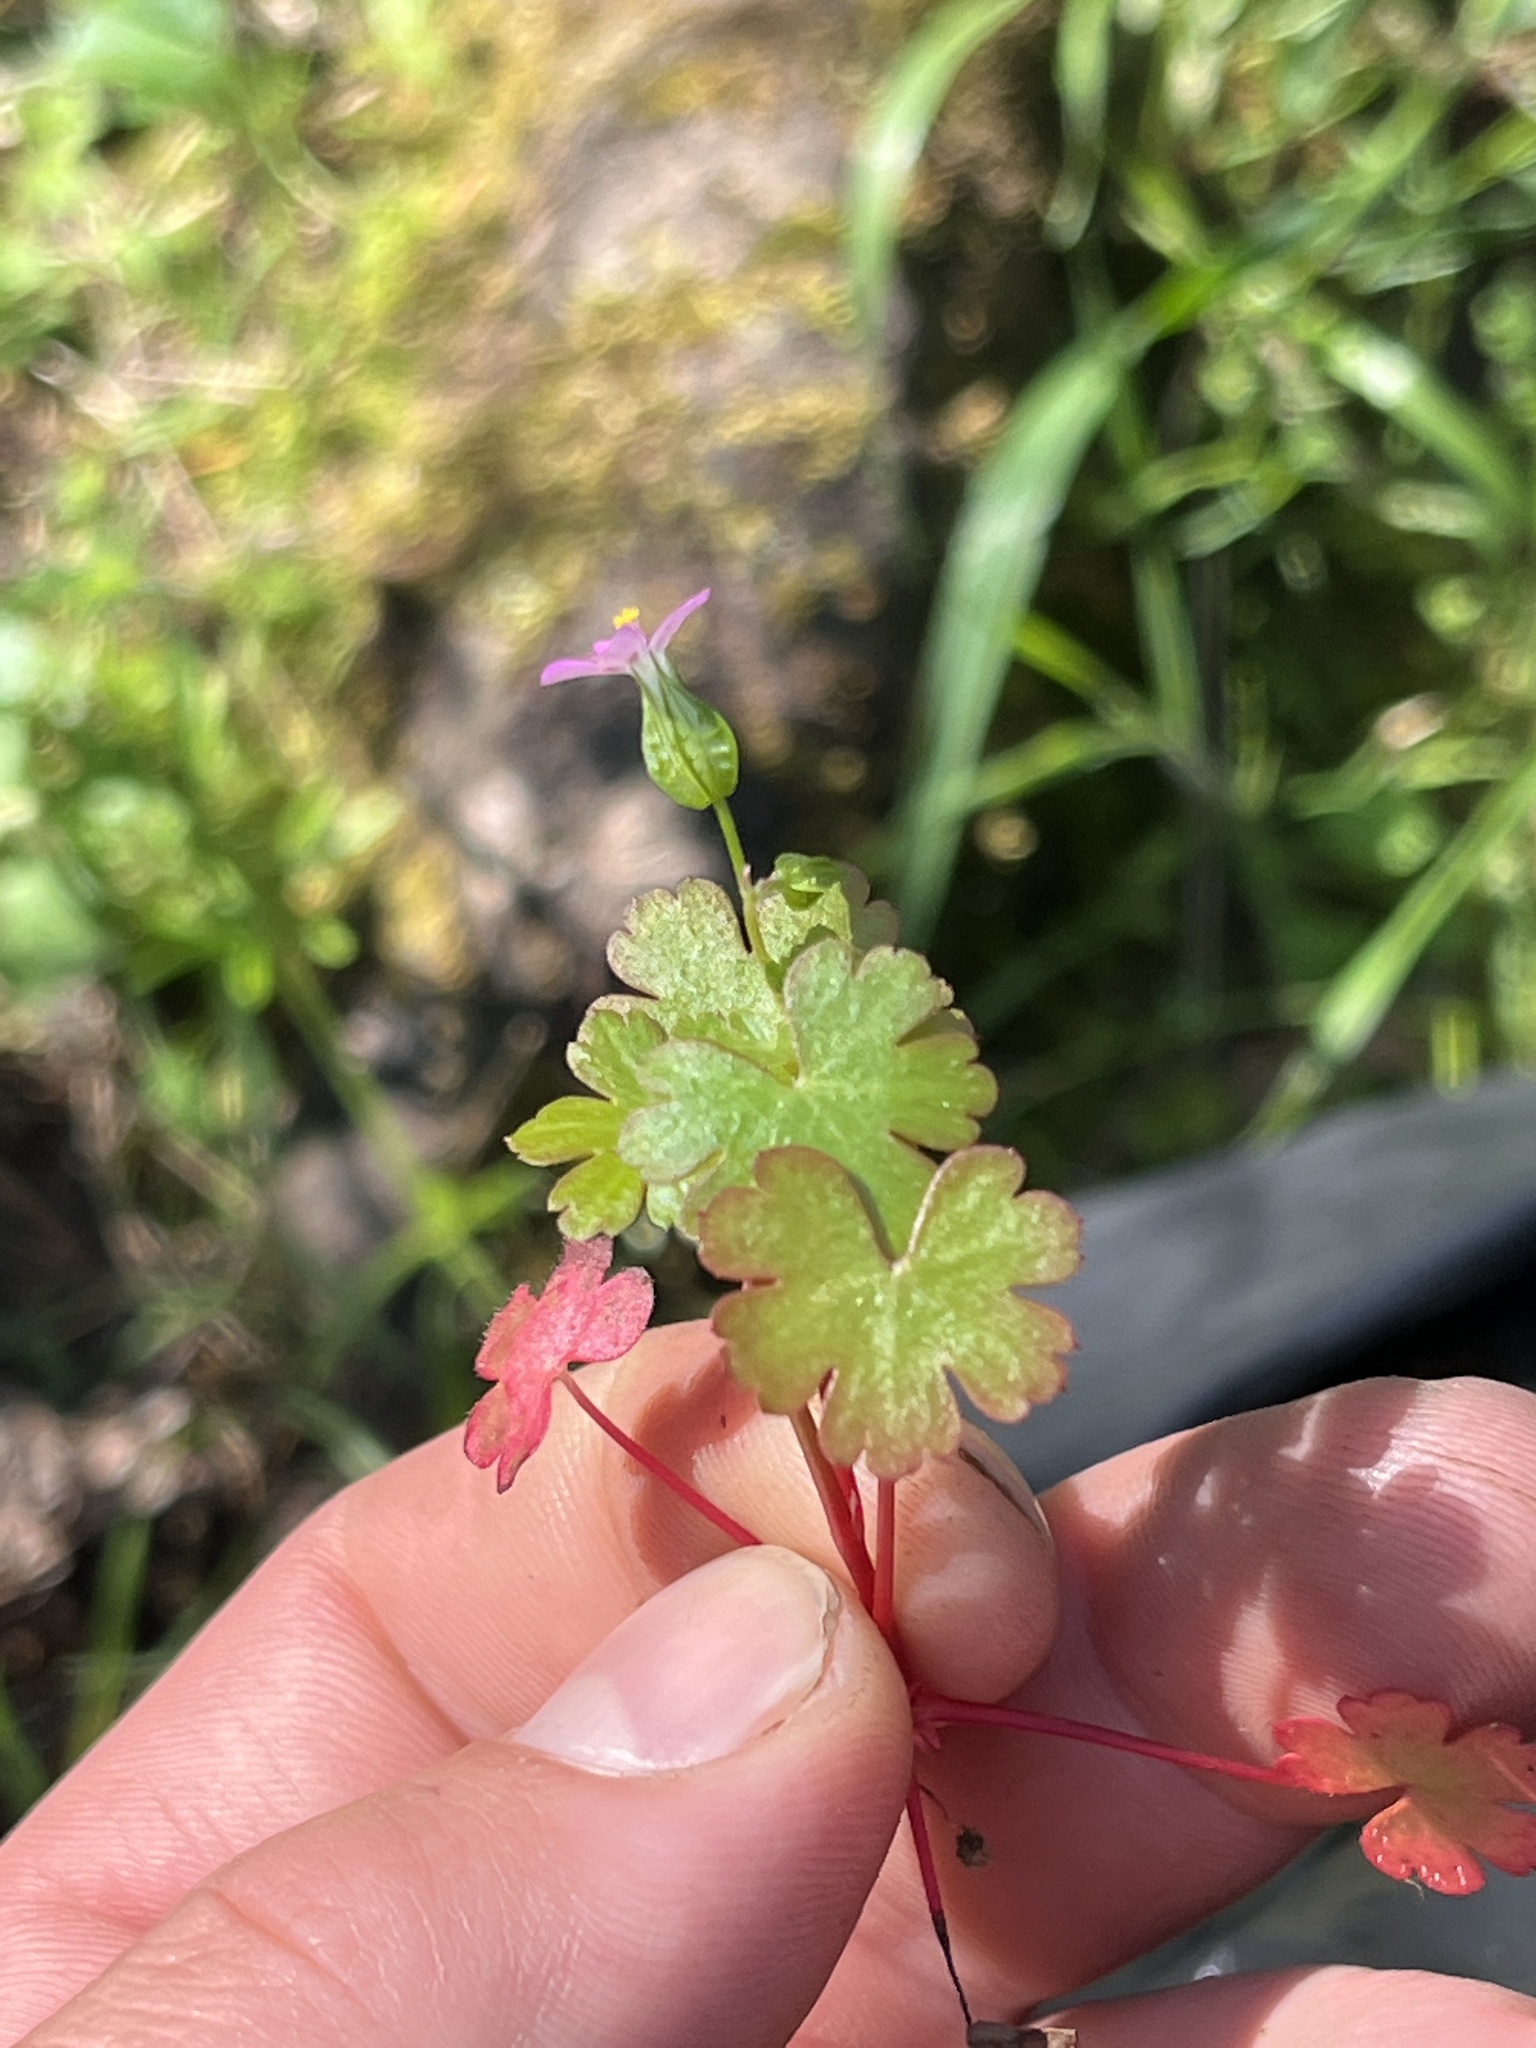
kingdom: Plantae
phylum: Tracheophyta
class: Magnoliopsida
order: Geraniales
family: Geraniaceae
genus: Geranium
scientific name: Geranium lucidum
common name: Shining crane's-bill
